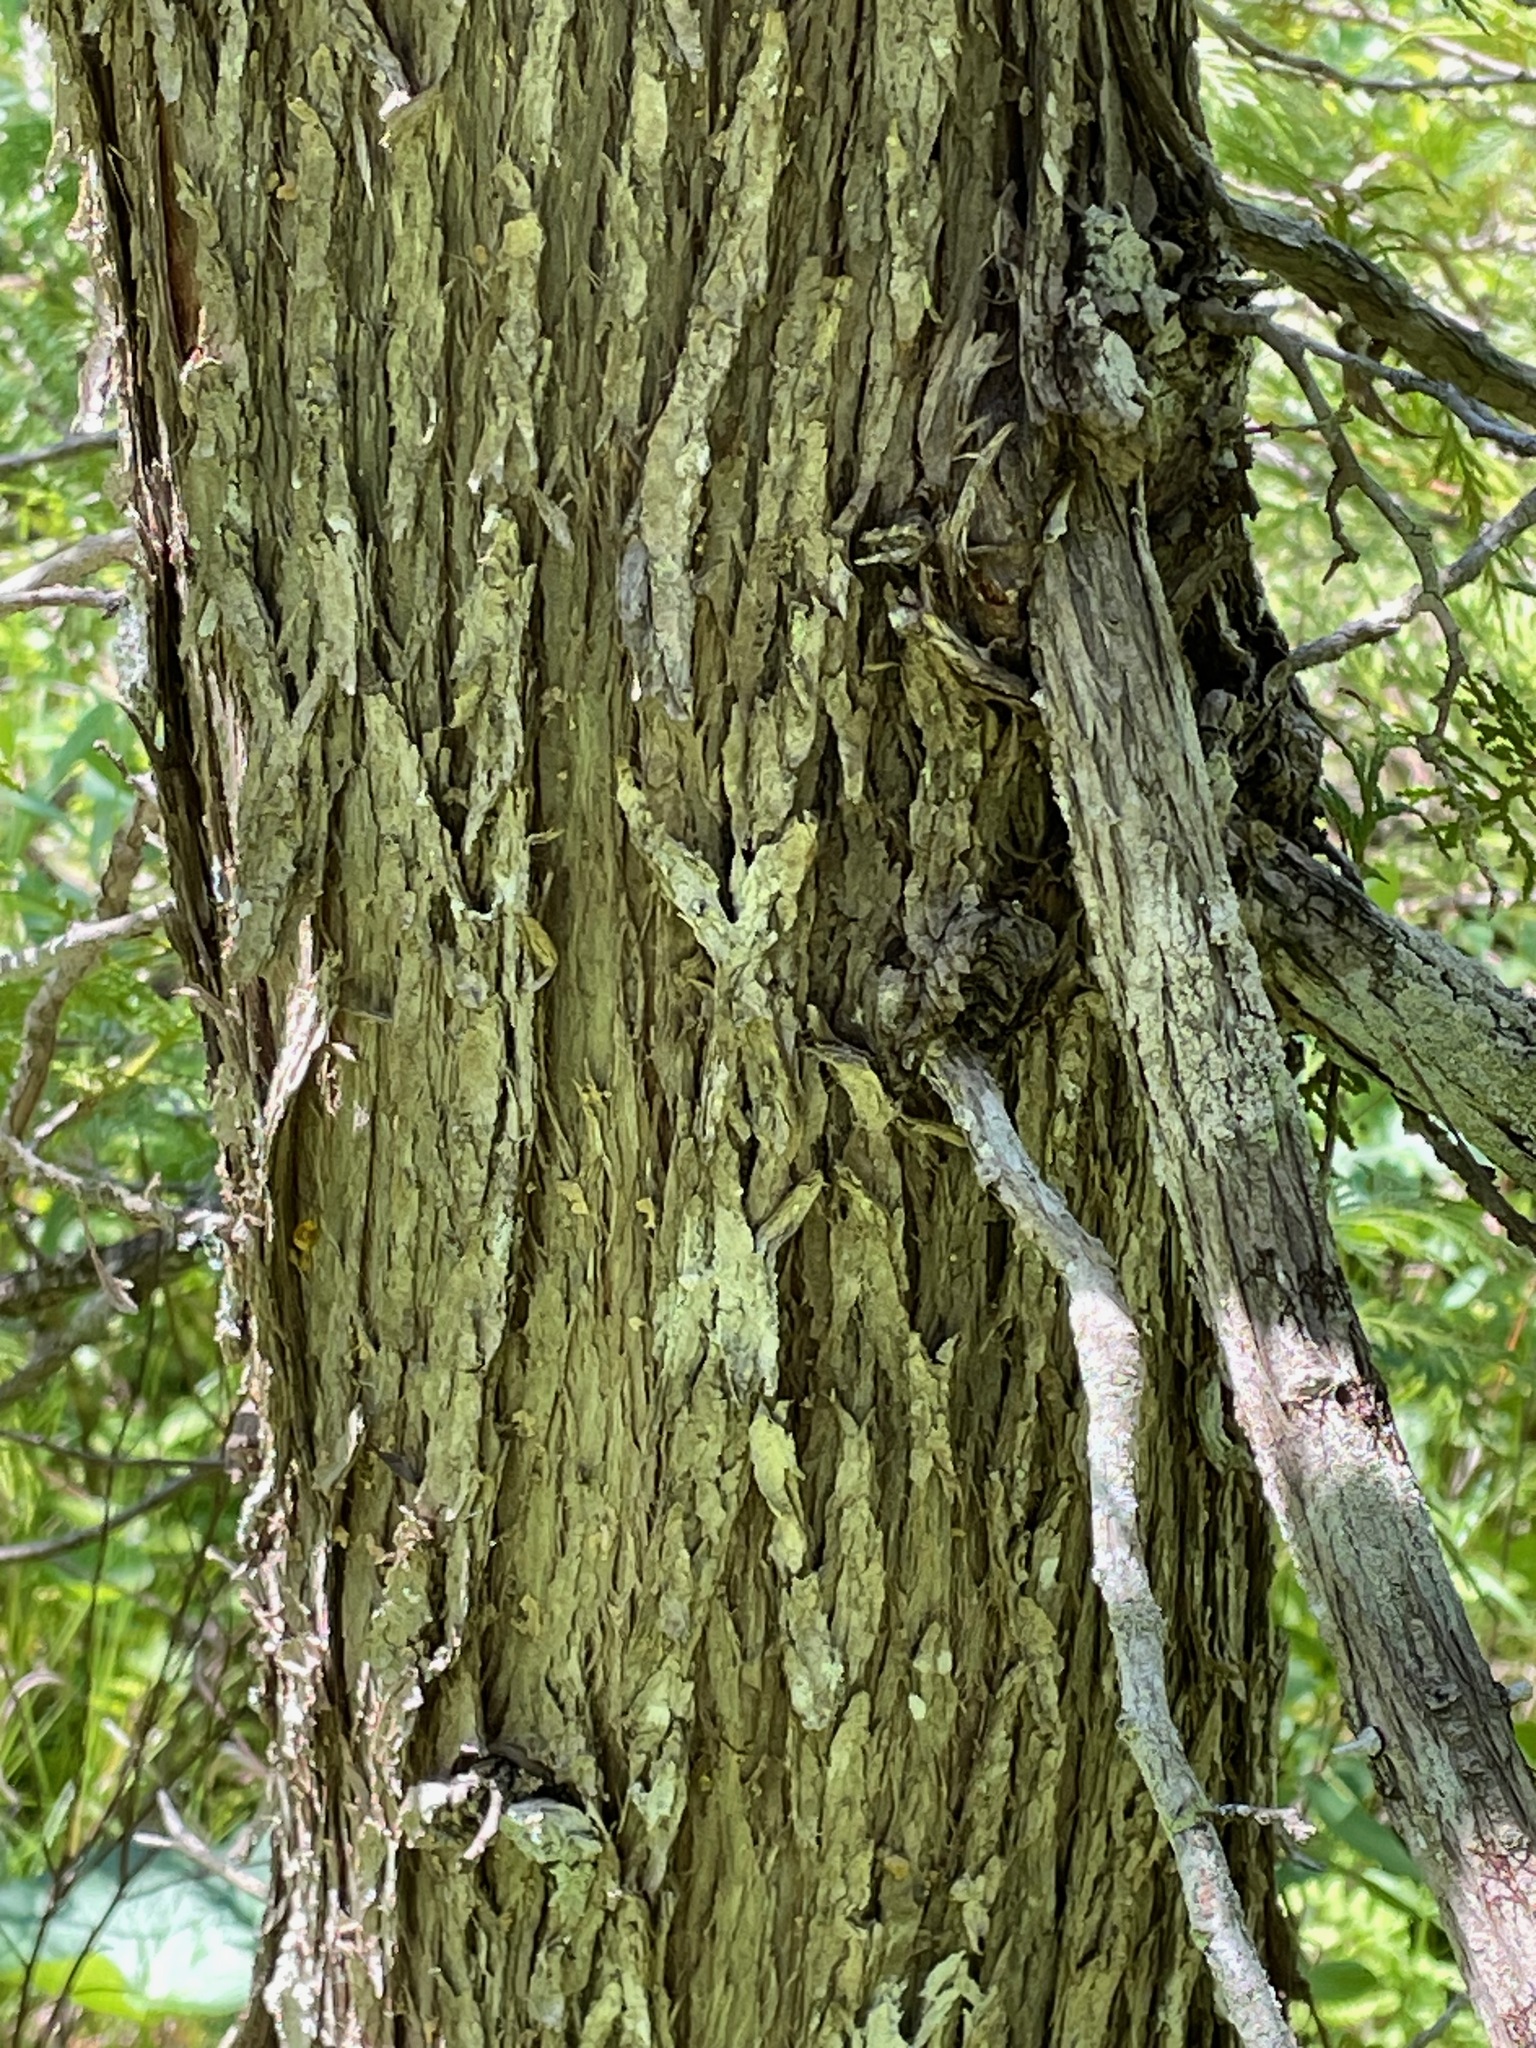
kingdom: Plantae
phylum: Tracheophyta
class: Pinopsida
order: Pinales
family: Cupressaceae
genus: Thuja
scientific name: Thuja occidentalis
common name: Northern white-cedar
